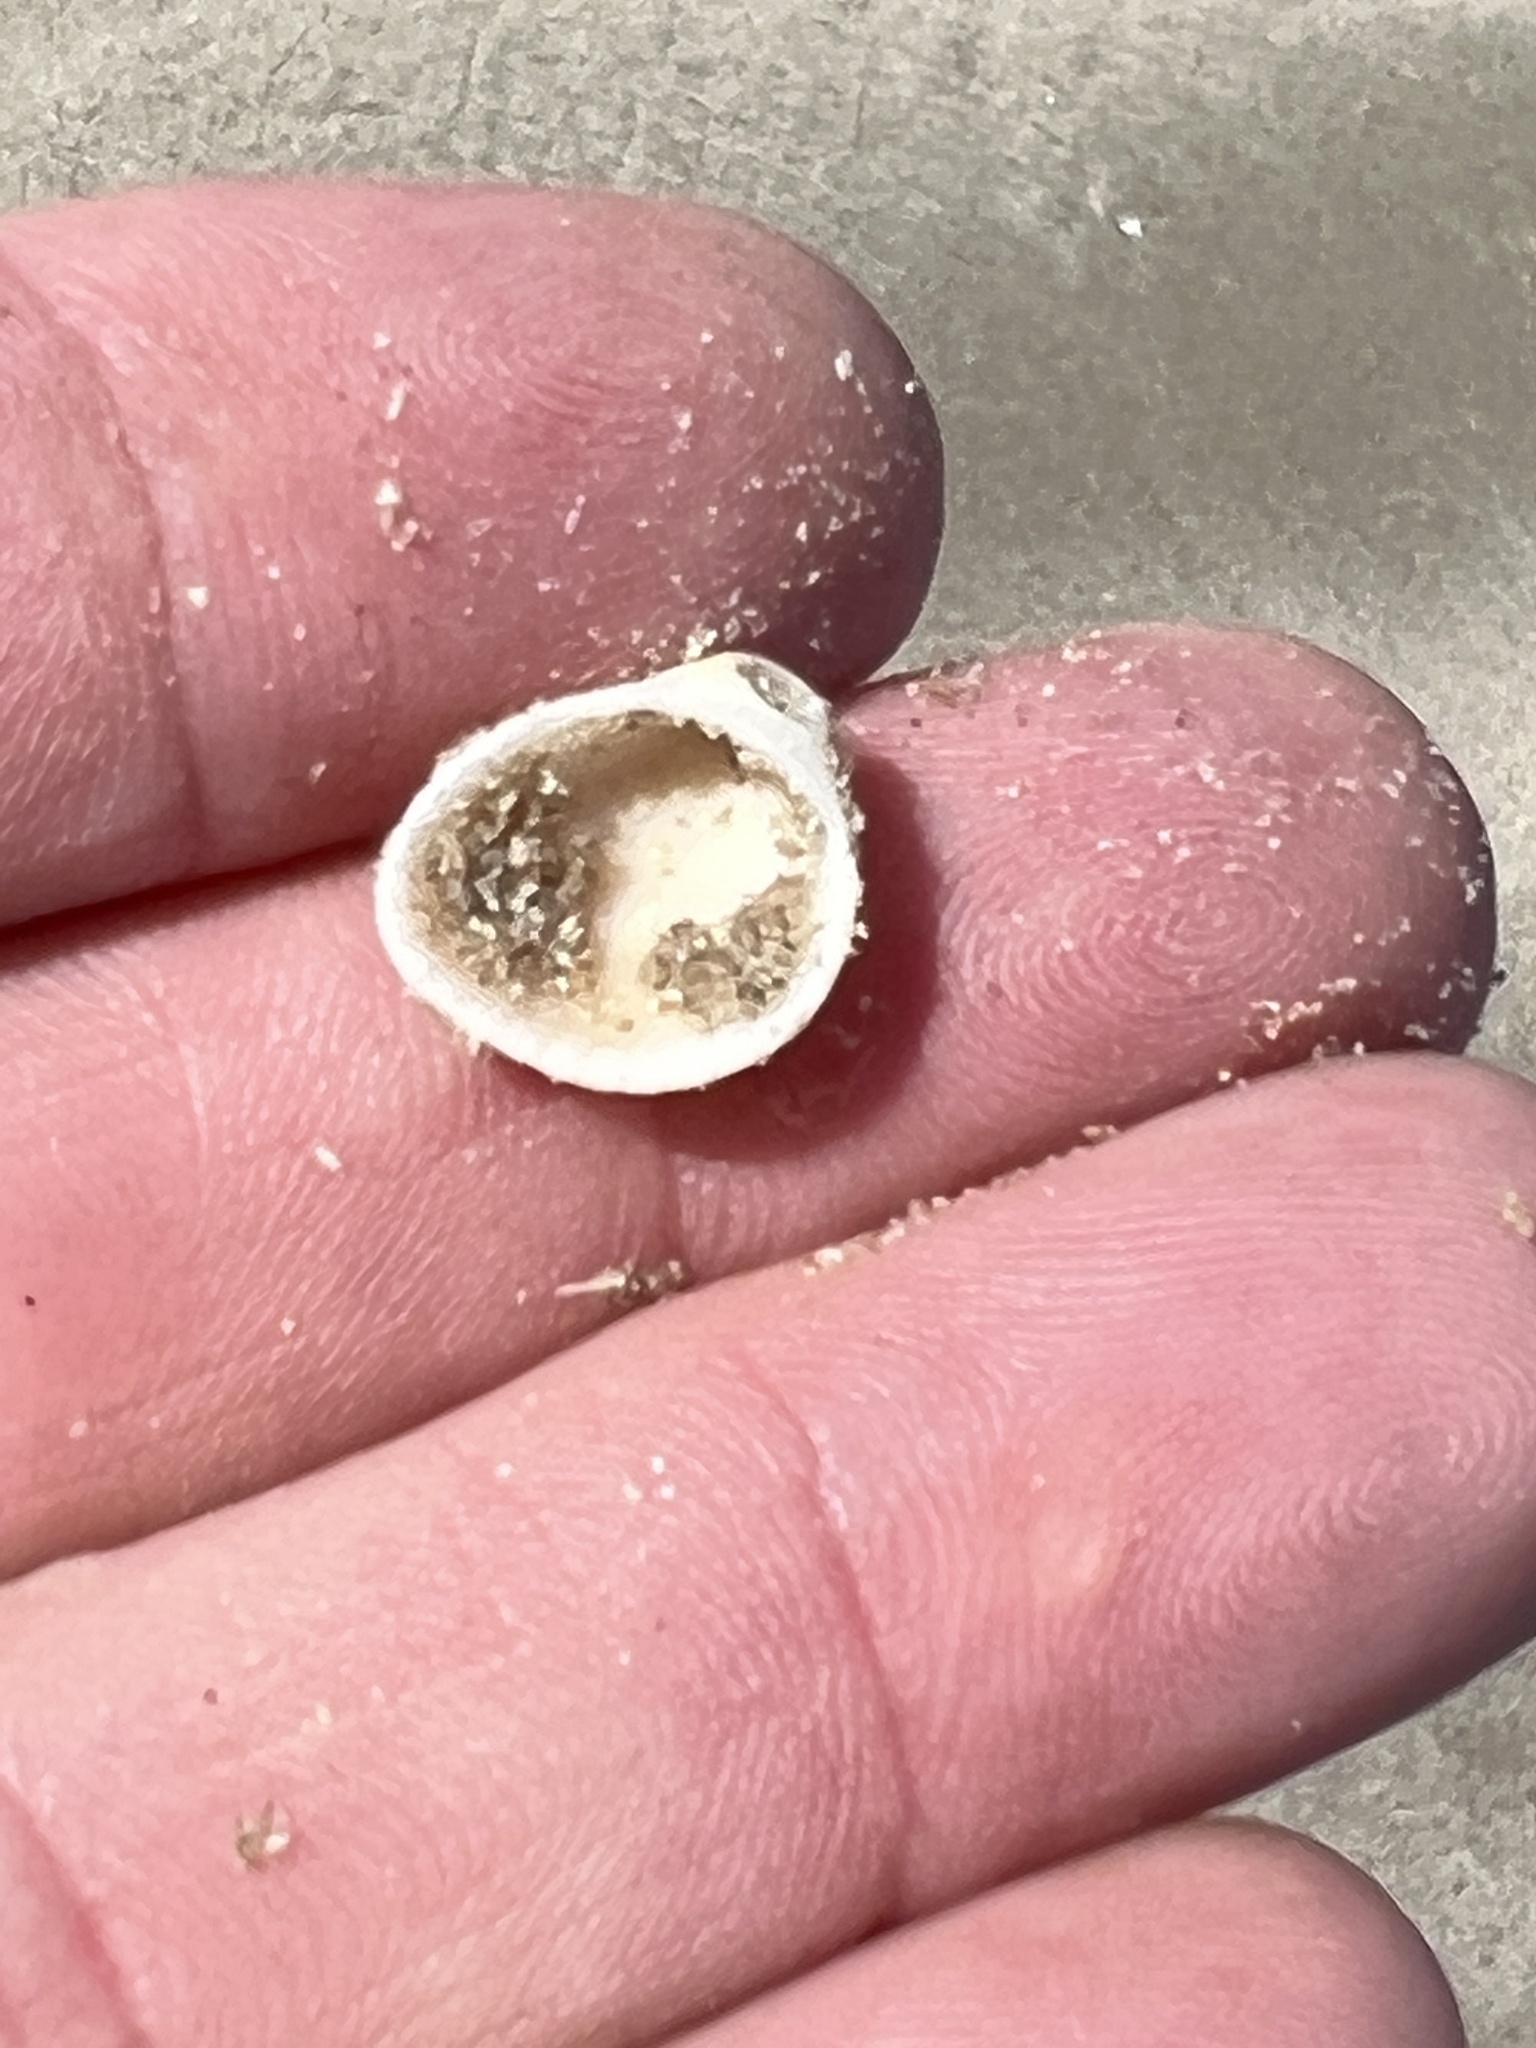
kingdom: Animalia
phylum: Mollusca
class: Bivalvia
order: Arcida
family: Arcidae
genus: Anadara
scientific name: Anadara chemnitzii
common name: Chemnitz's triangular ark
